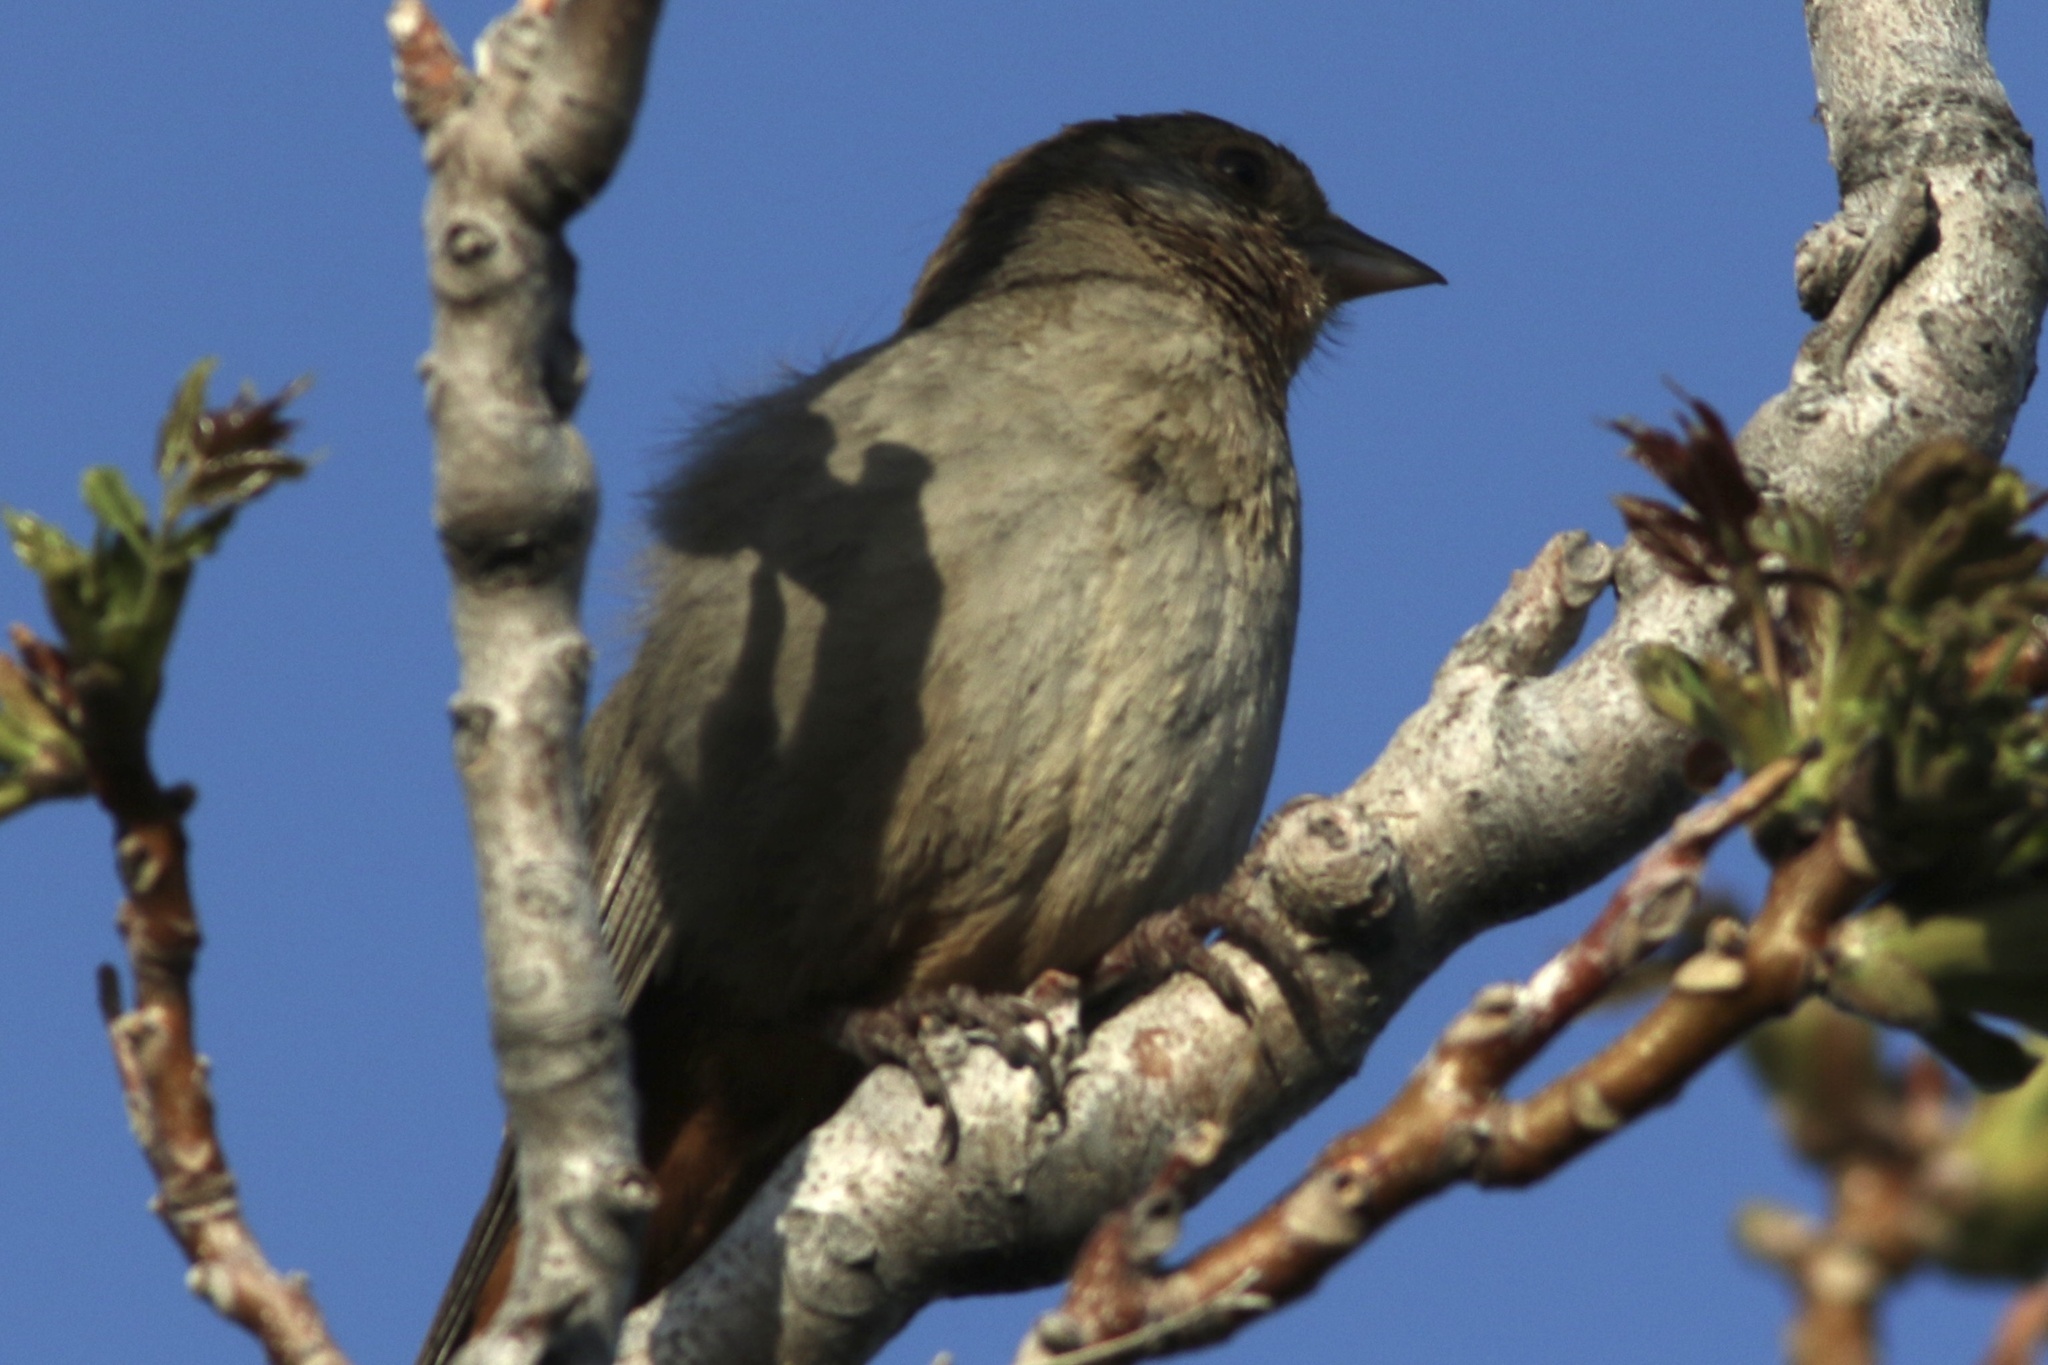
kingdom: Animalia
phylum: Chordata
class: Aves
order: Passeriformes
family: Passerellidae
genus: Melozone
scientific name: Melozone crissalis
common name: California towhee
